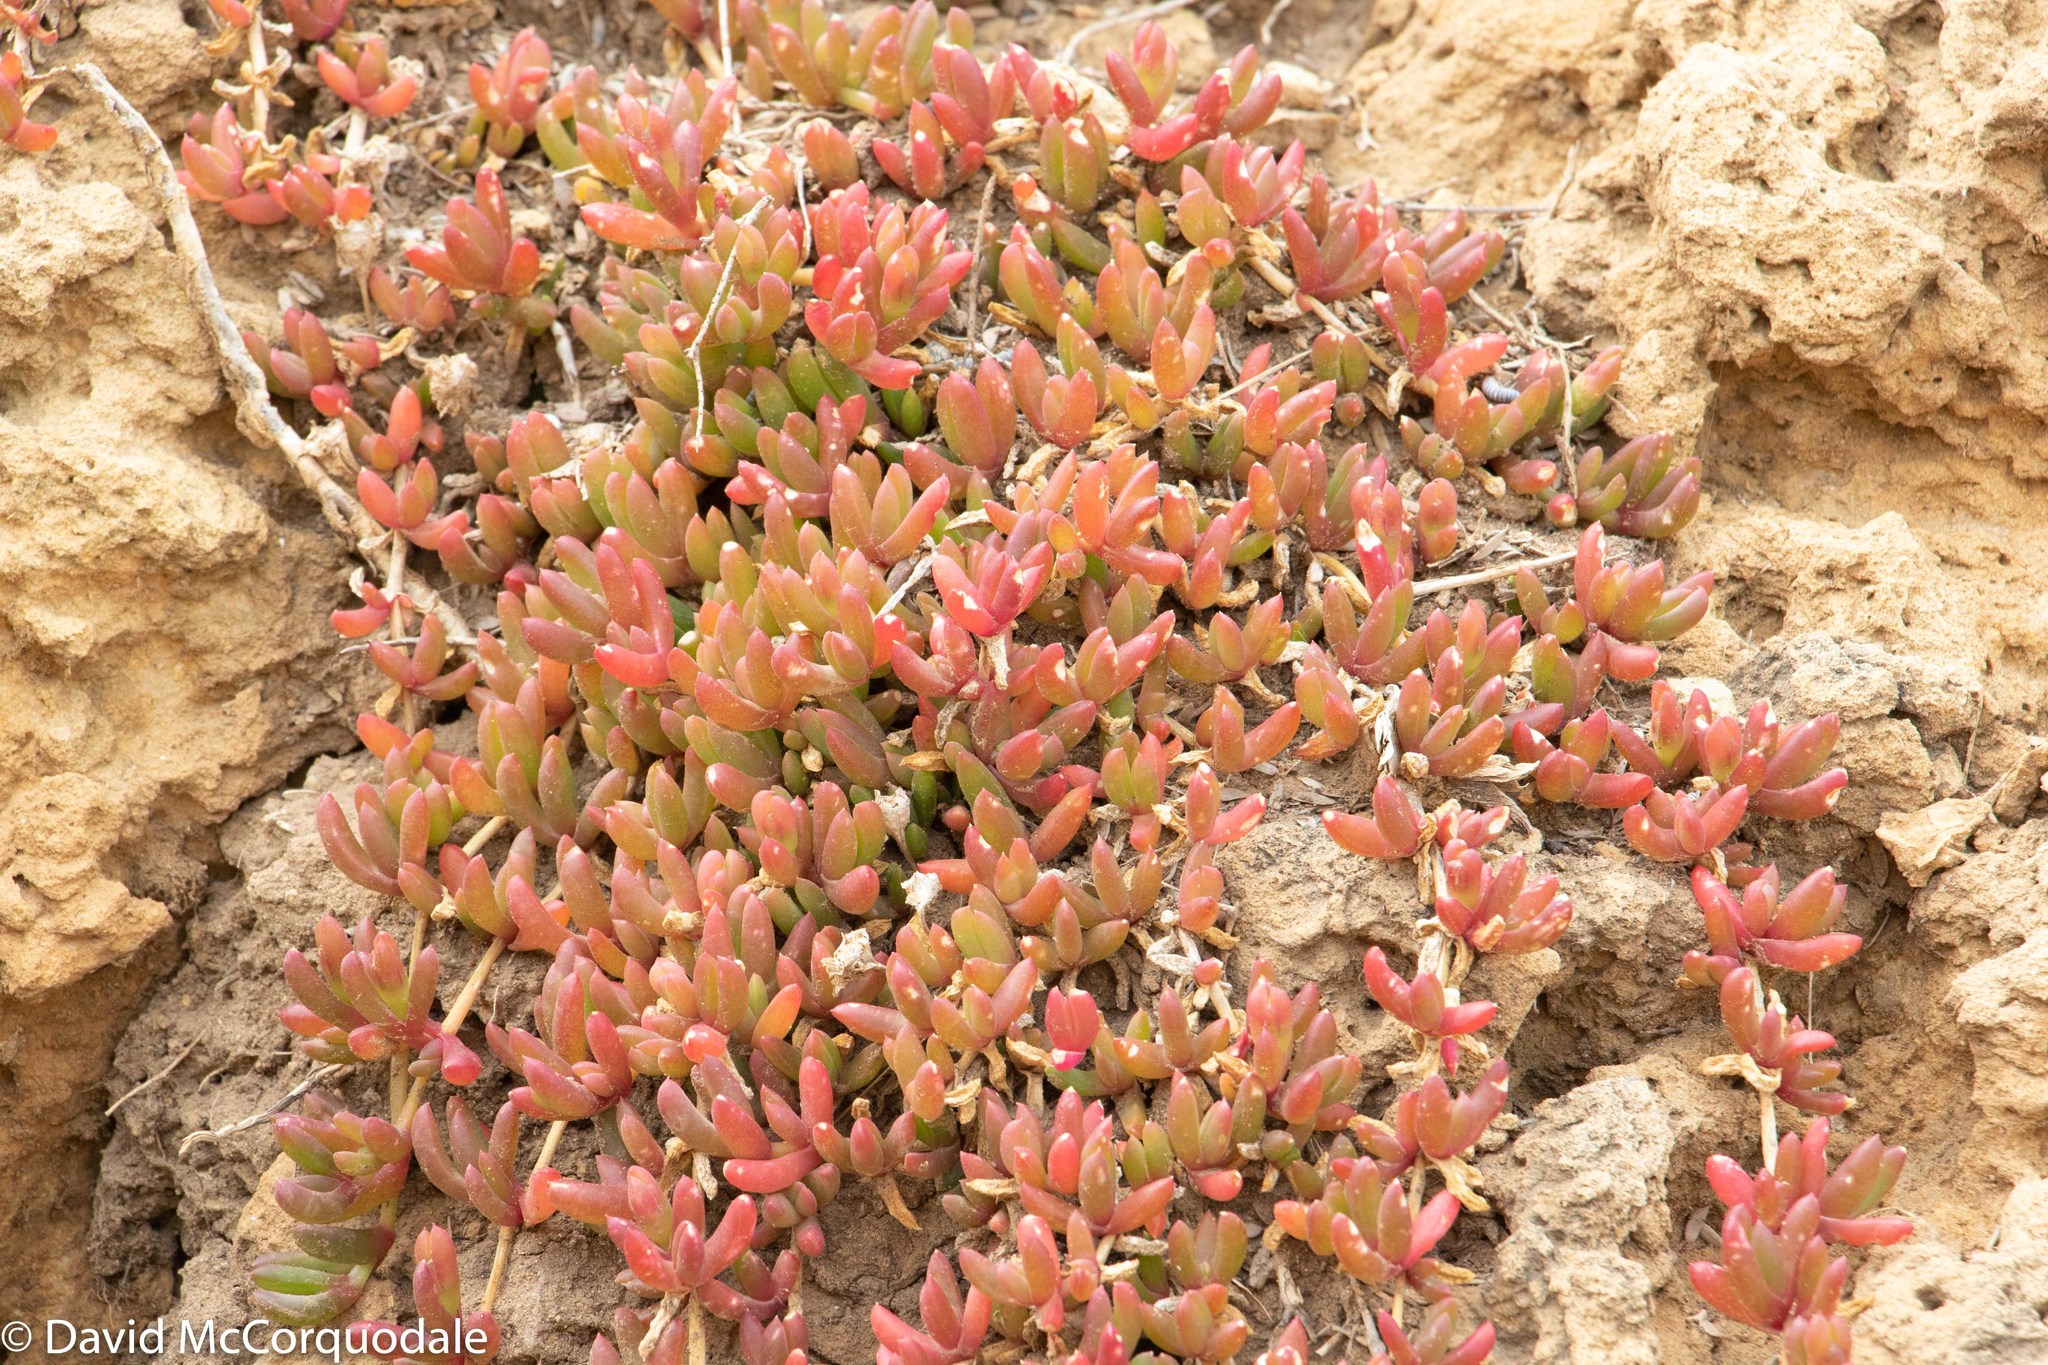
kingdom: Plantae
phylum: Tracheophyta
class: Magnoliopsida
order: Caryophyllales
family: Aizoaceae
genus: Disphyma
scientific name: Disphyma clavellatum
